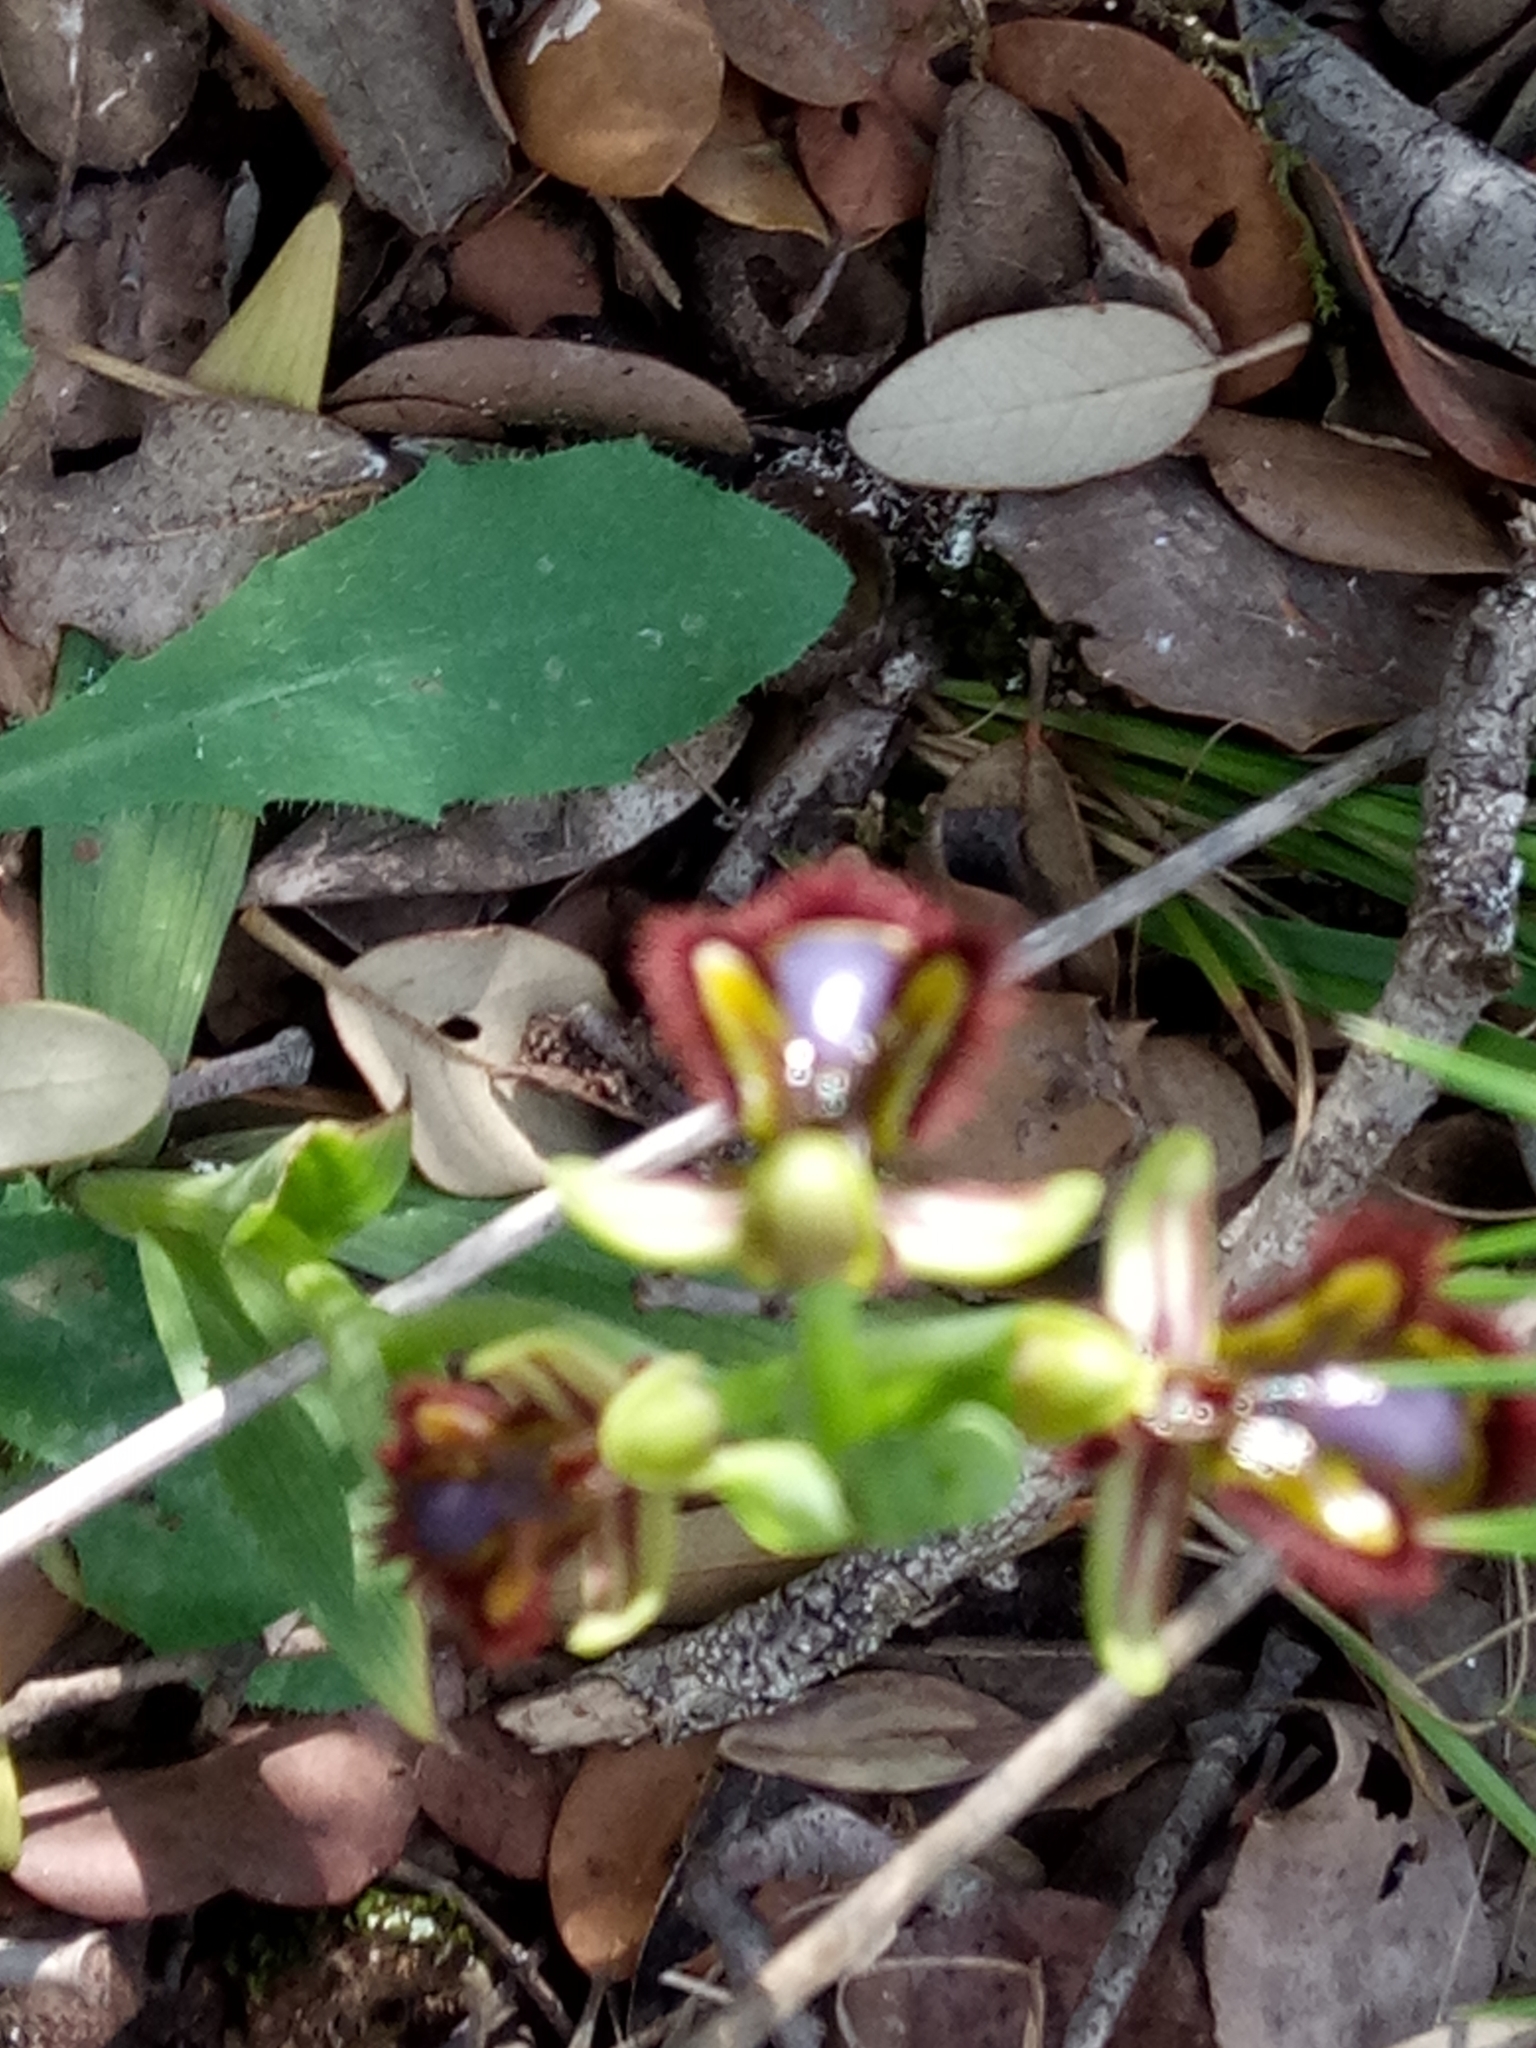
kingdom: Plantae
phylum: Tracheophyta
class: Liliopsida
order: Asparagales
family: Orchidaceae
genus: Ophrys
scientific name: Ophrys speculum
